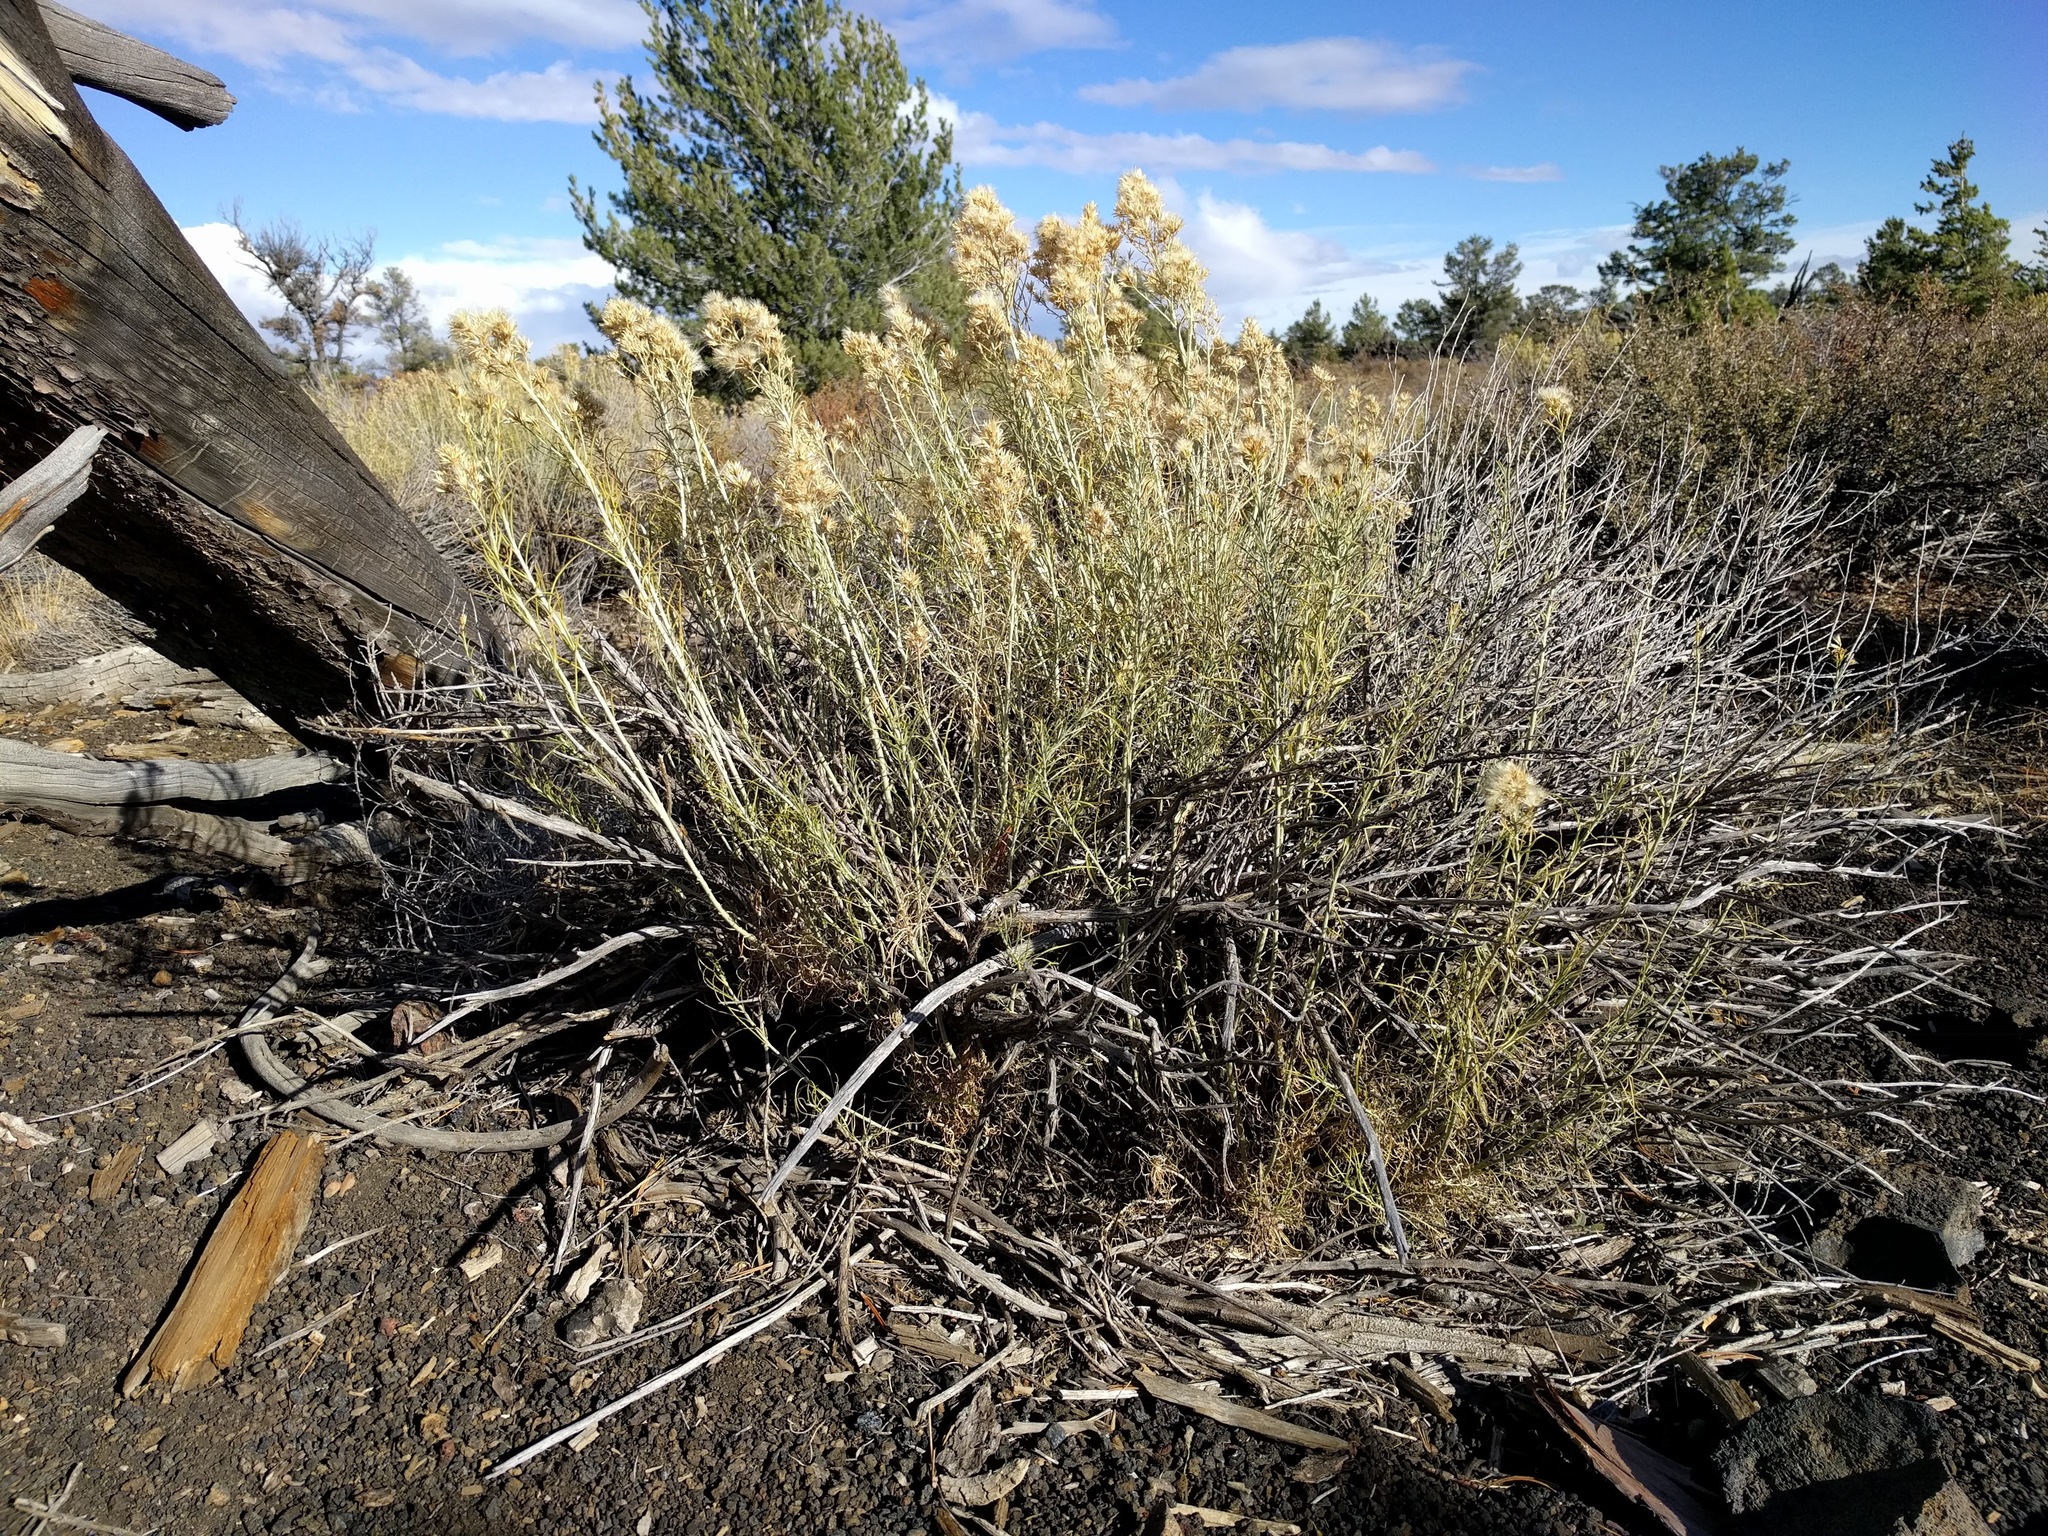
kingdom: Plantae
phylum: Tracheophyta
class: Magnoliopsida
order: Asterales
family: Asteraceae
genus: Ericameria
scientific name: Ericameria nauseosa
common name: Rubber rabbitbrush
